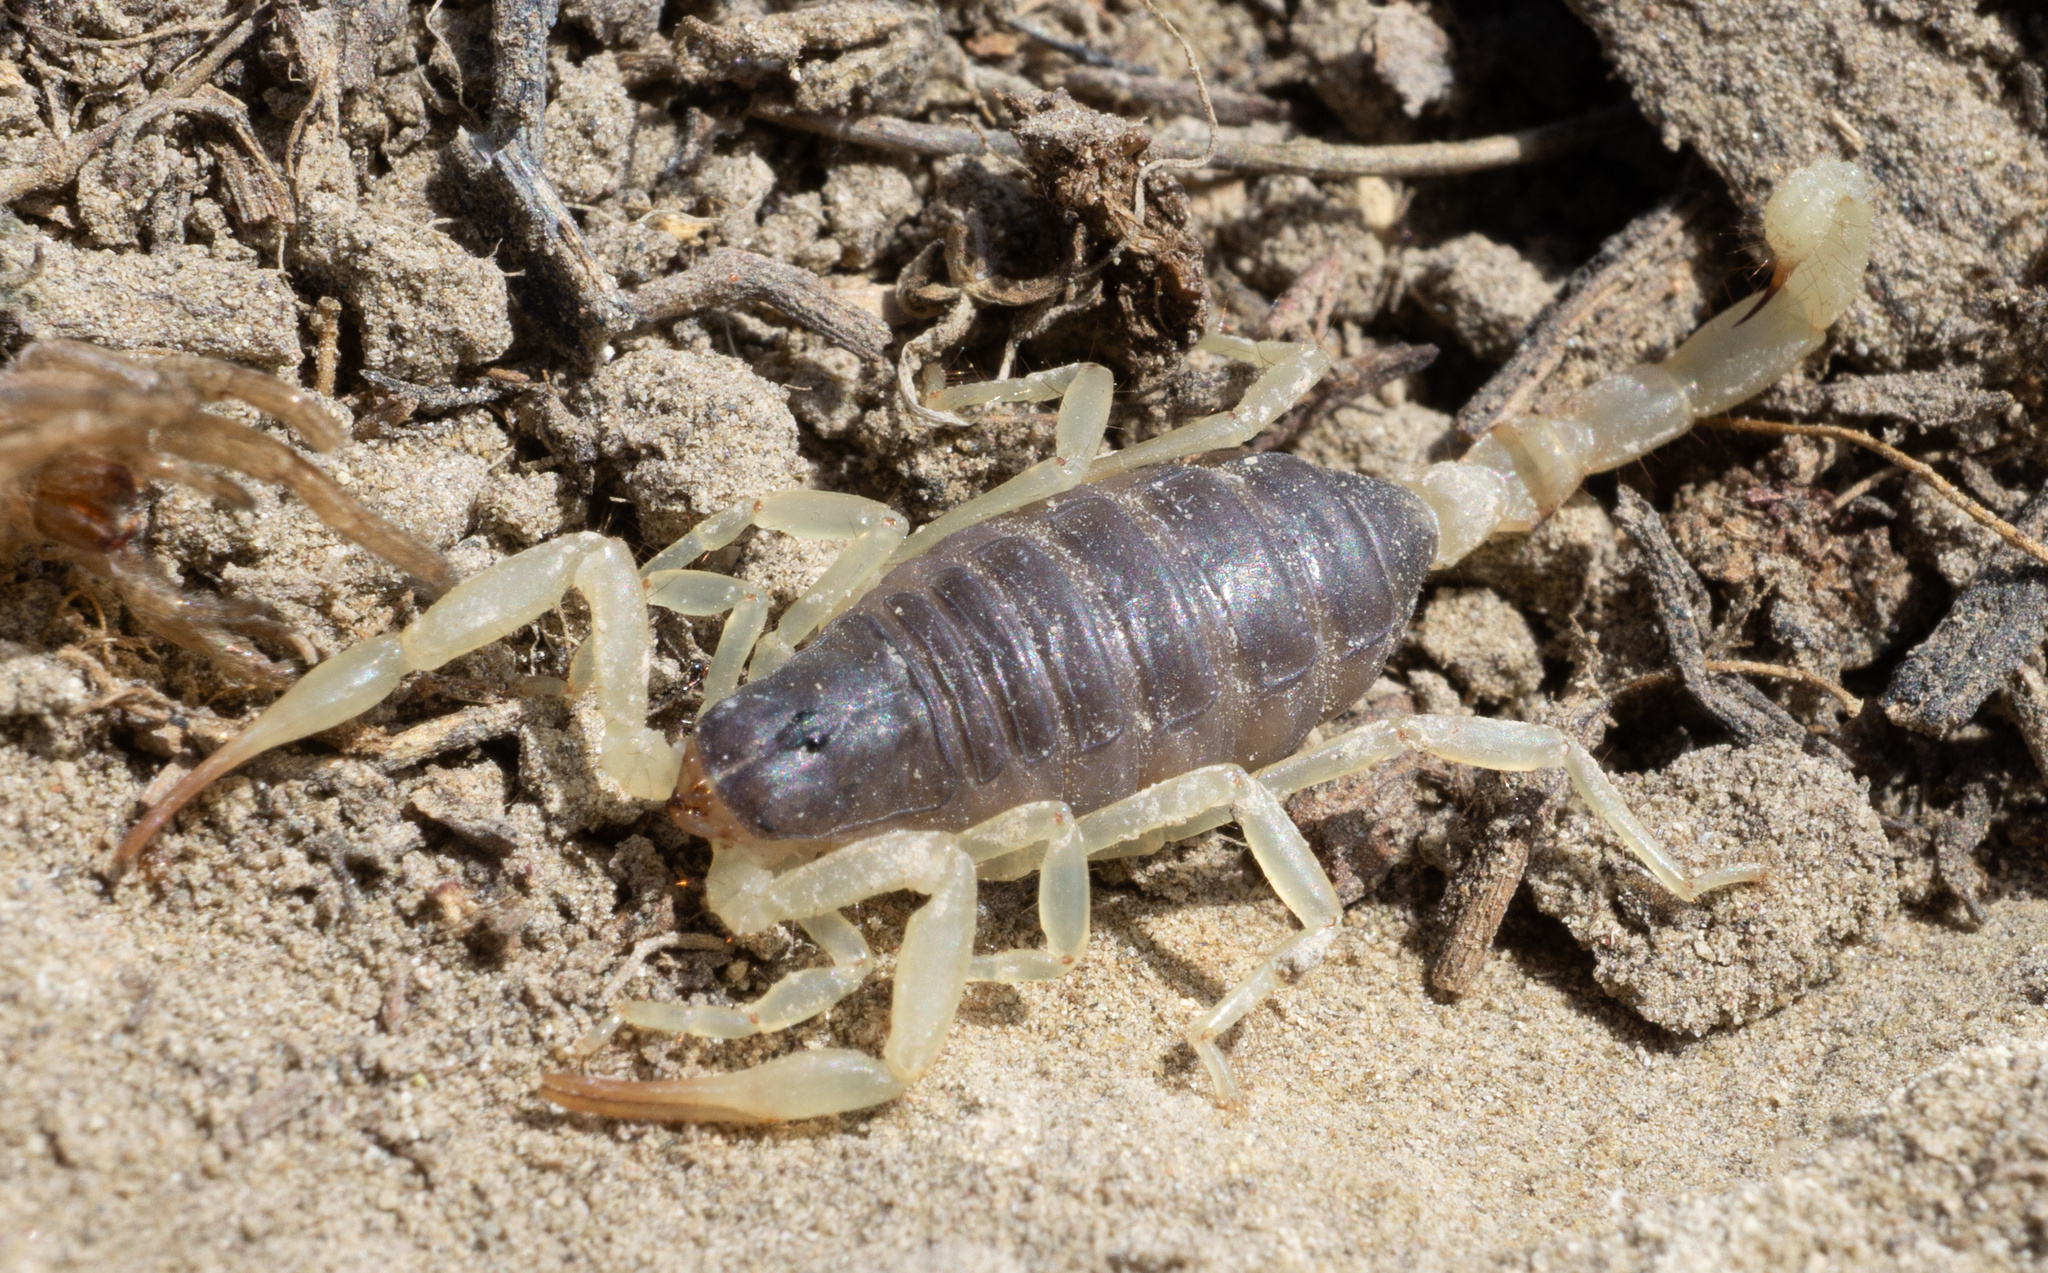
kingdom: Animalia
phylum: Arthropoda
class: Arachnida
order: Scorpiones
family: Hadruridae
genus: Hadrurus
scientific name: Hadrurus spadix
